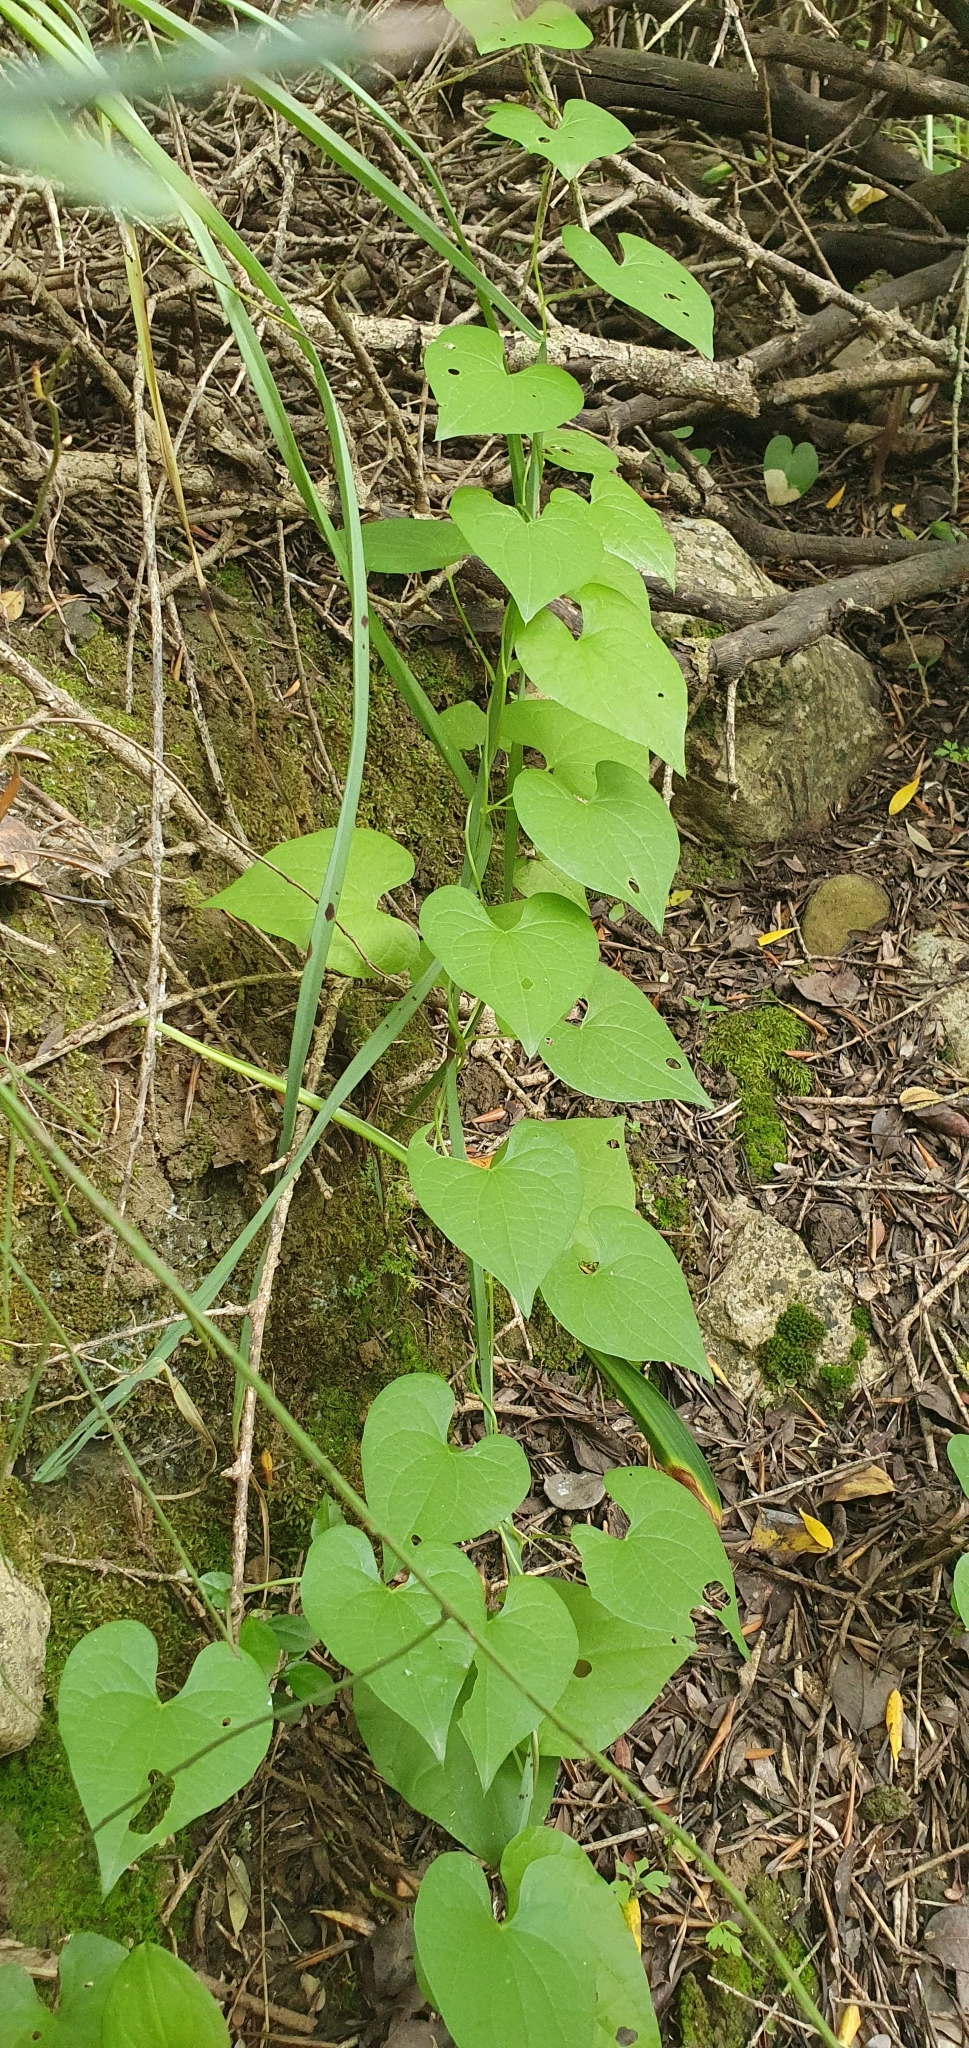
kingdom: Plantae
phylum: Tracheophyta
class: Liliopsida
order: Dioscoreales
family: Dioscoreaceae
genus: Dioscorea
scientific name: Dioscorea communis
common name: Black-bindweed
